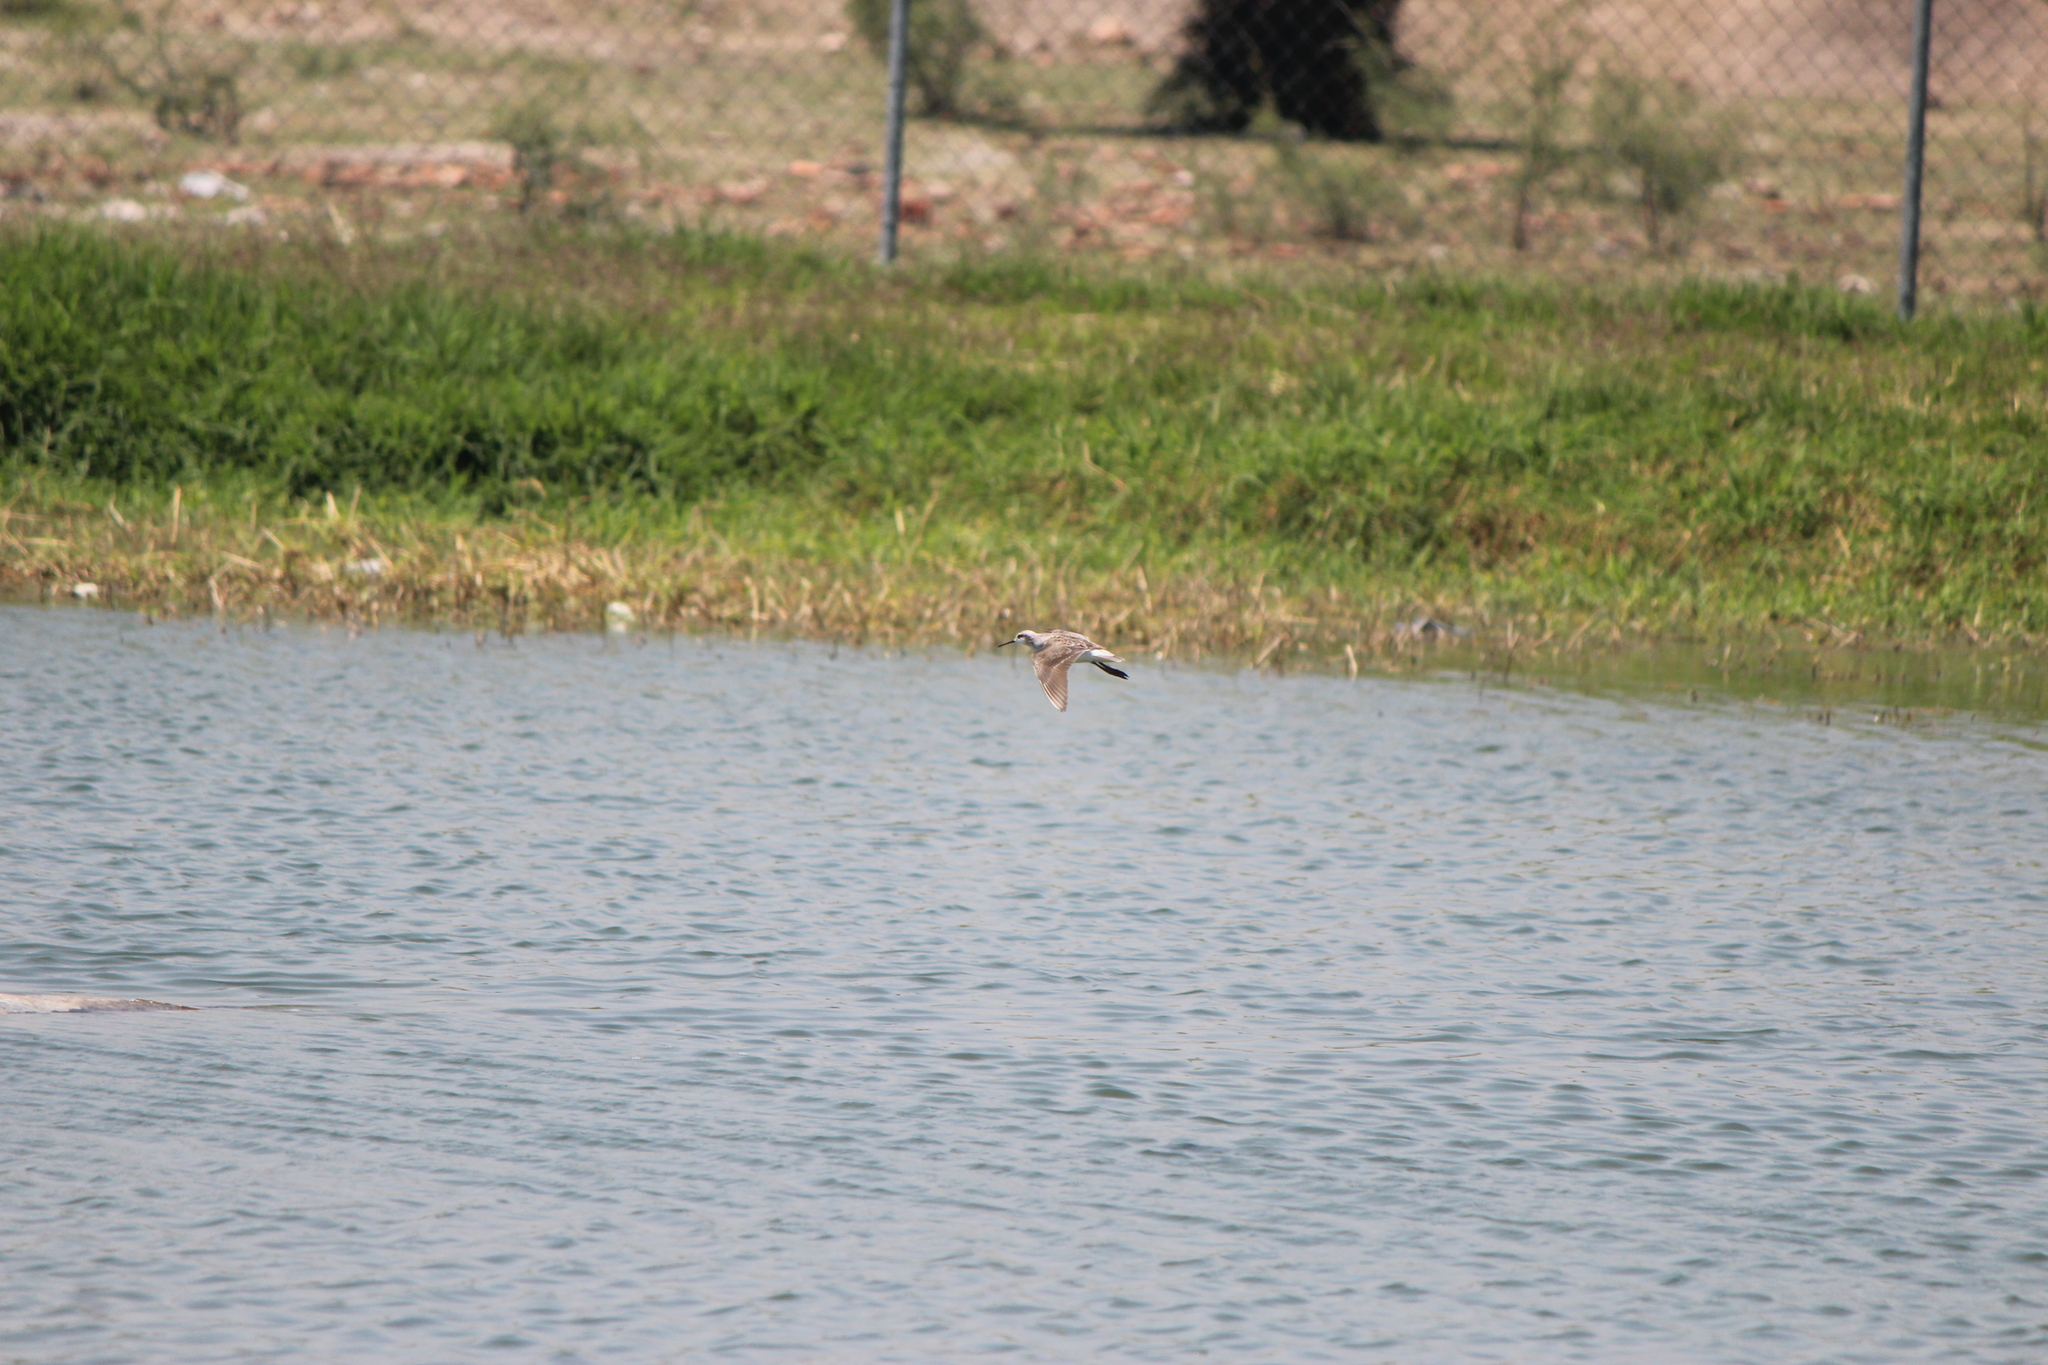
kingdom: Animalia
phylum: Chordata
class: Aves
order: Charadriiformes
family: Scolopacidae
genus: Phalaropus
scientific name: Phalaropus tricolor
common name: Wilson's phalarope
